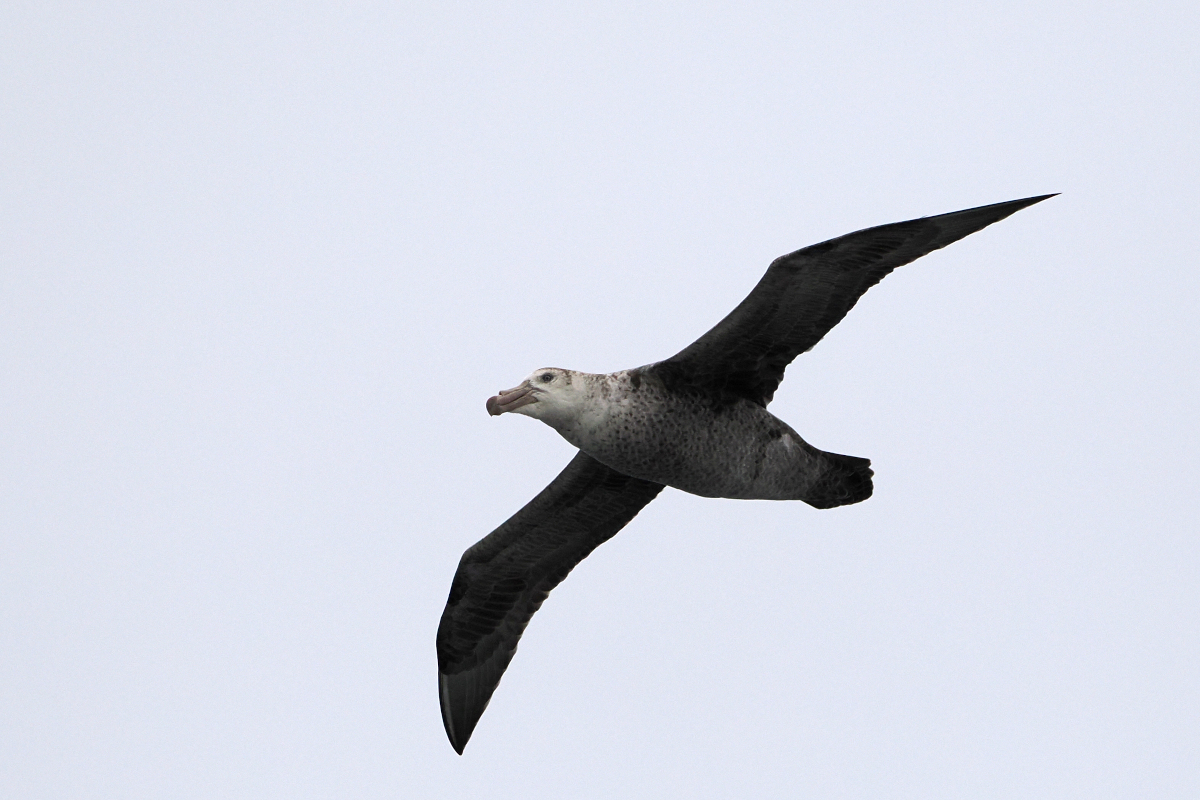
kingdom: Animalia
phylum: Chordata
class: Aves
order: Procellariiformes
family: Procellariidae
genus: Macronectes
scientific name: Macronectes halli
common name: Northern giant petrel
